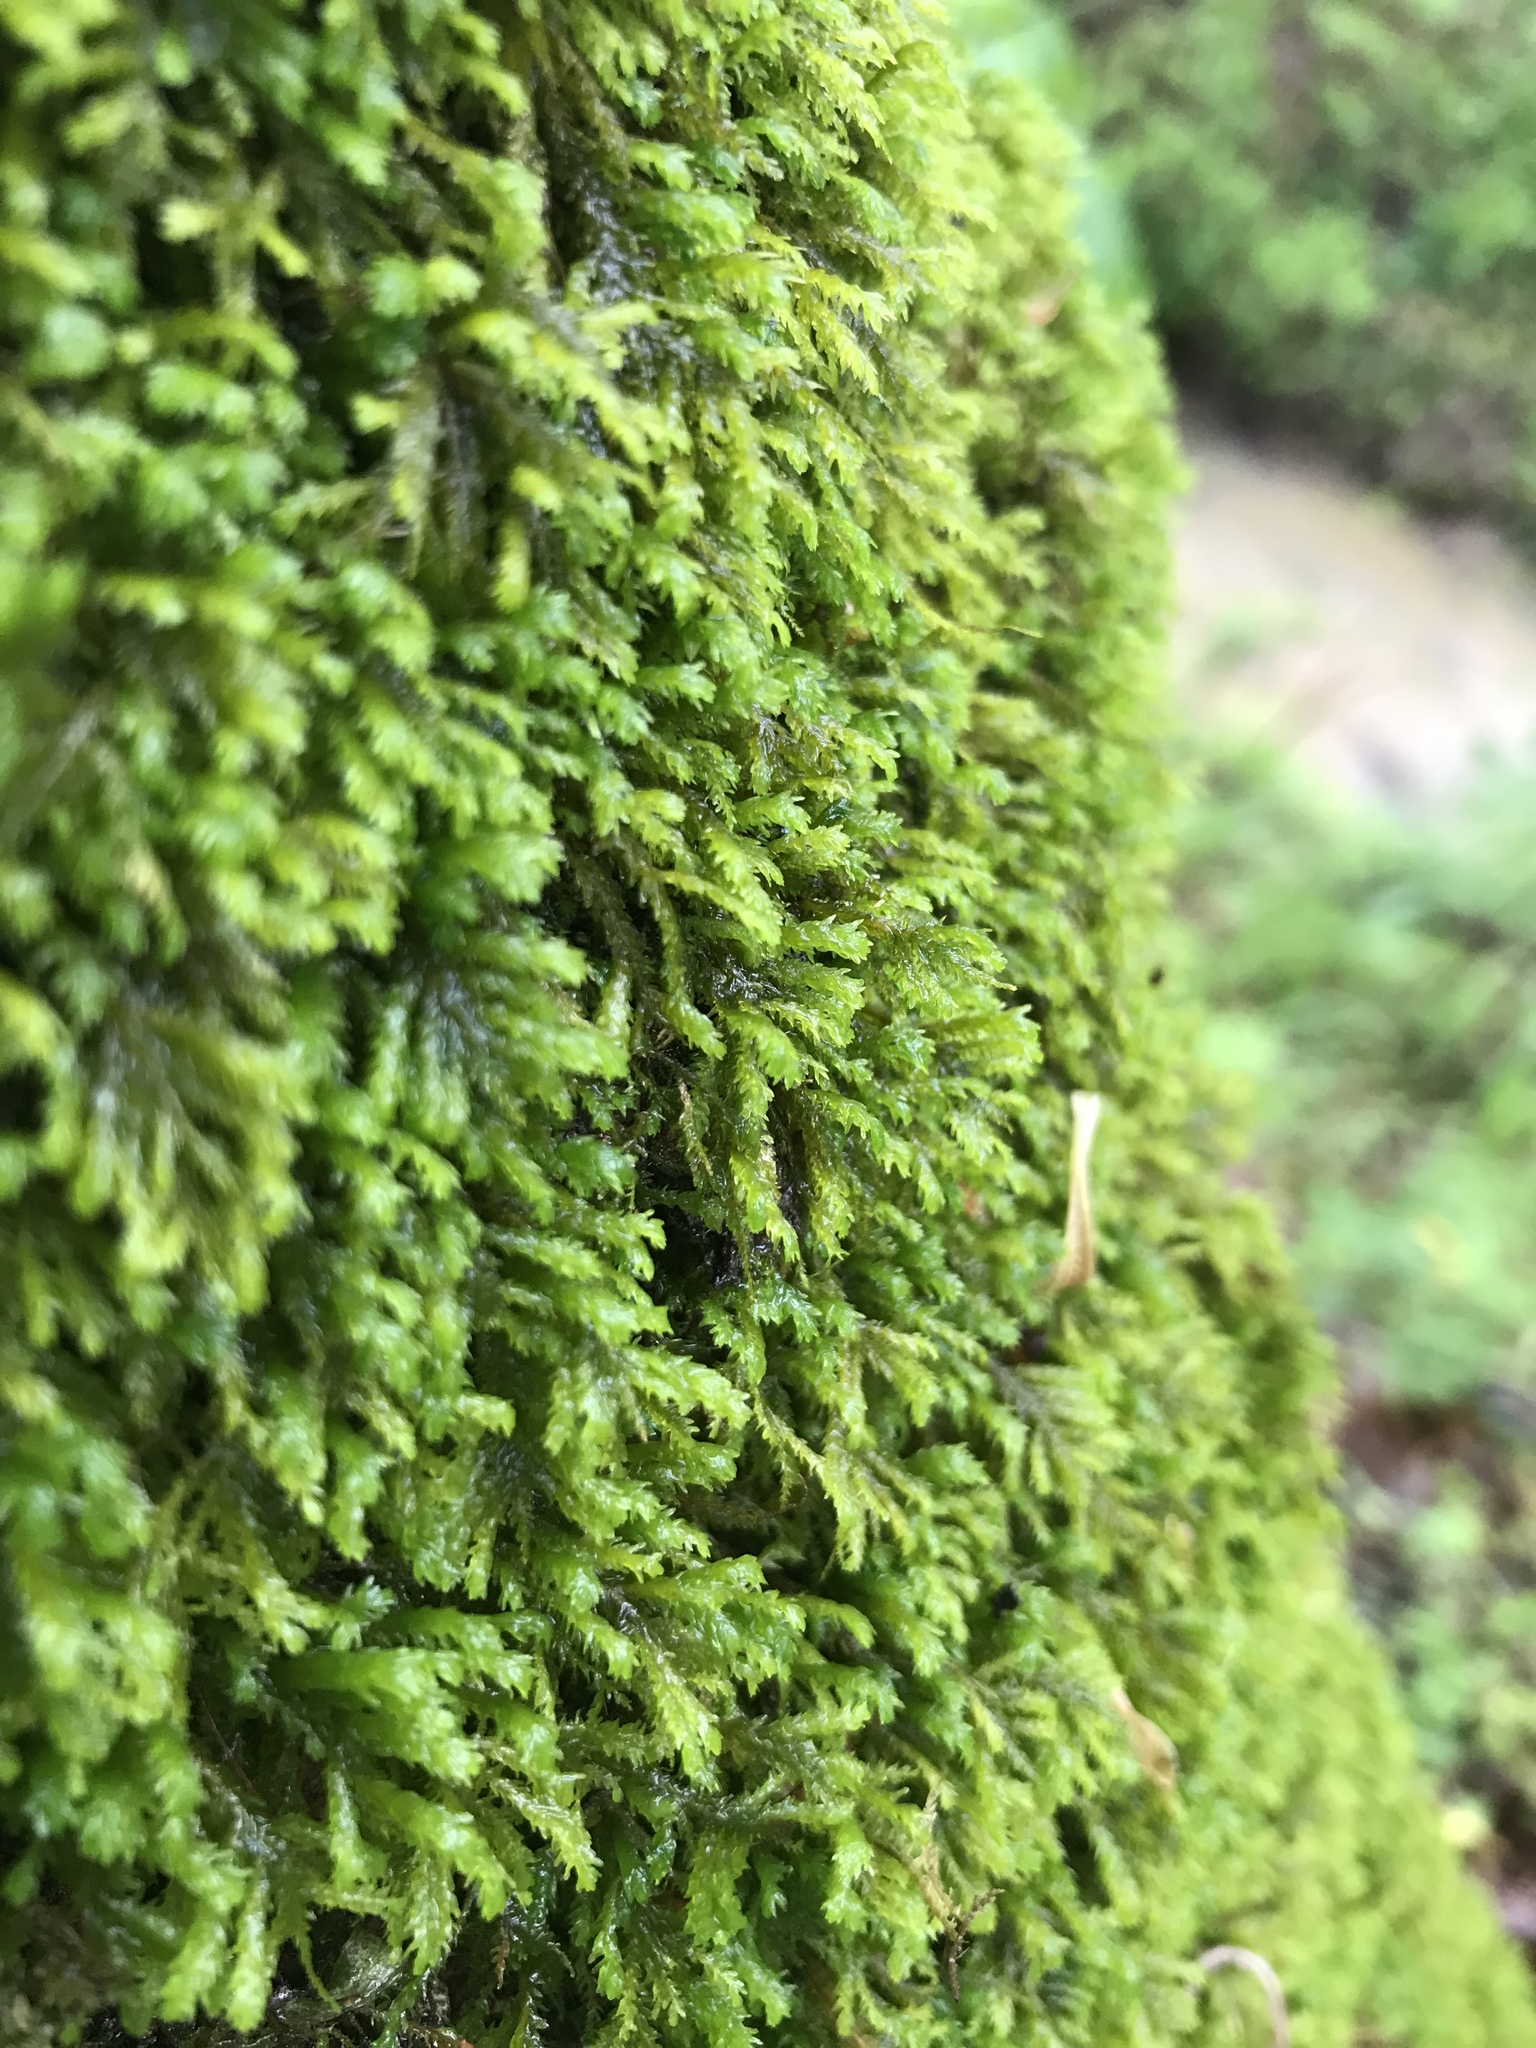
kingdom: Plantae
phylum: Bryophyta
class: Bryopsida
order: Hypnales
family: Neckeraceae
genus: Pseudanomodon
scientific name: Pseudanomodon attenuatus
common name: Tree-skirt moss
